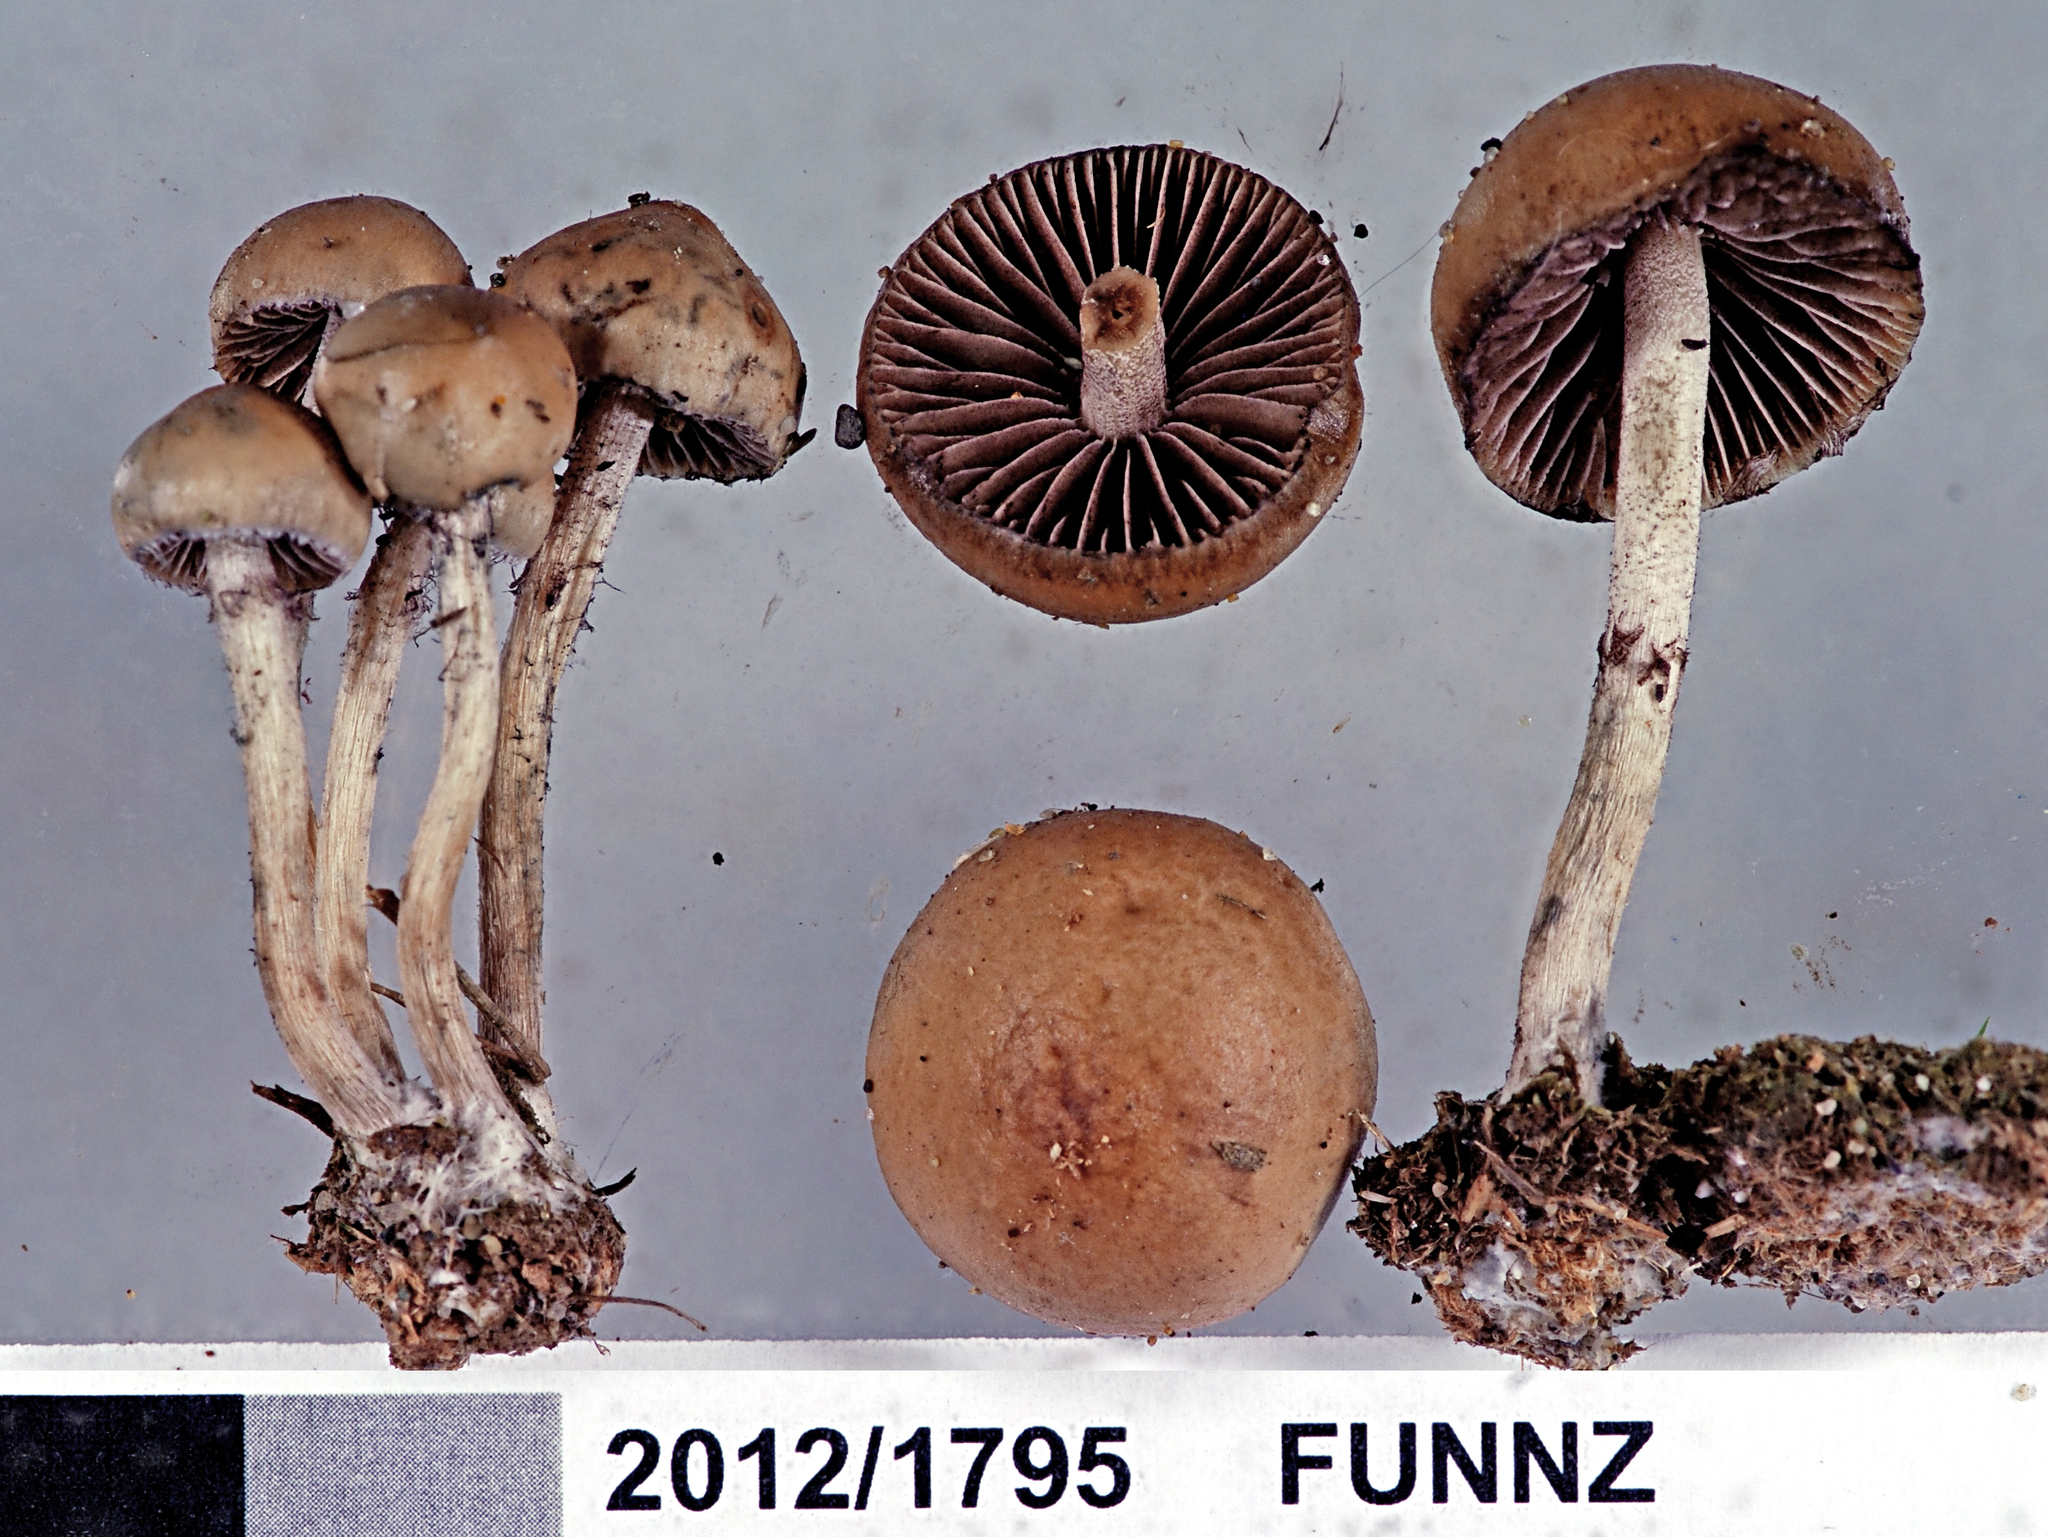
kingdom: Fungi
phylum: Basidiomycota
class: Agaricomycetes
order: Agaricales
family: Hymenogastraceae
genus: Psilocybe
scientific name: Psilocybe alutacea
